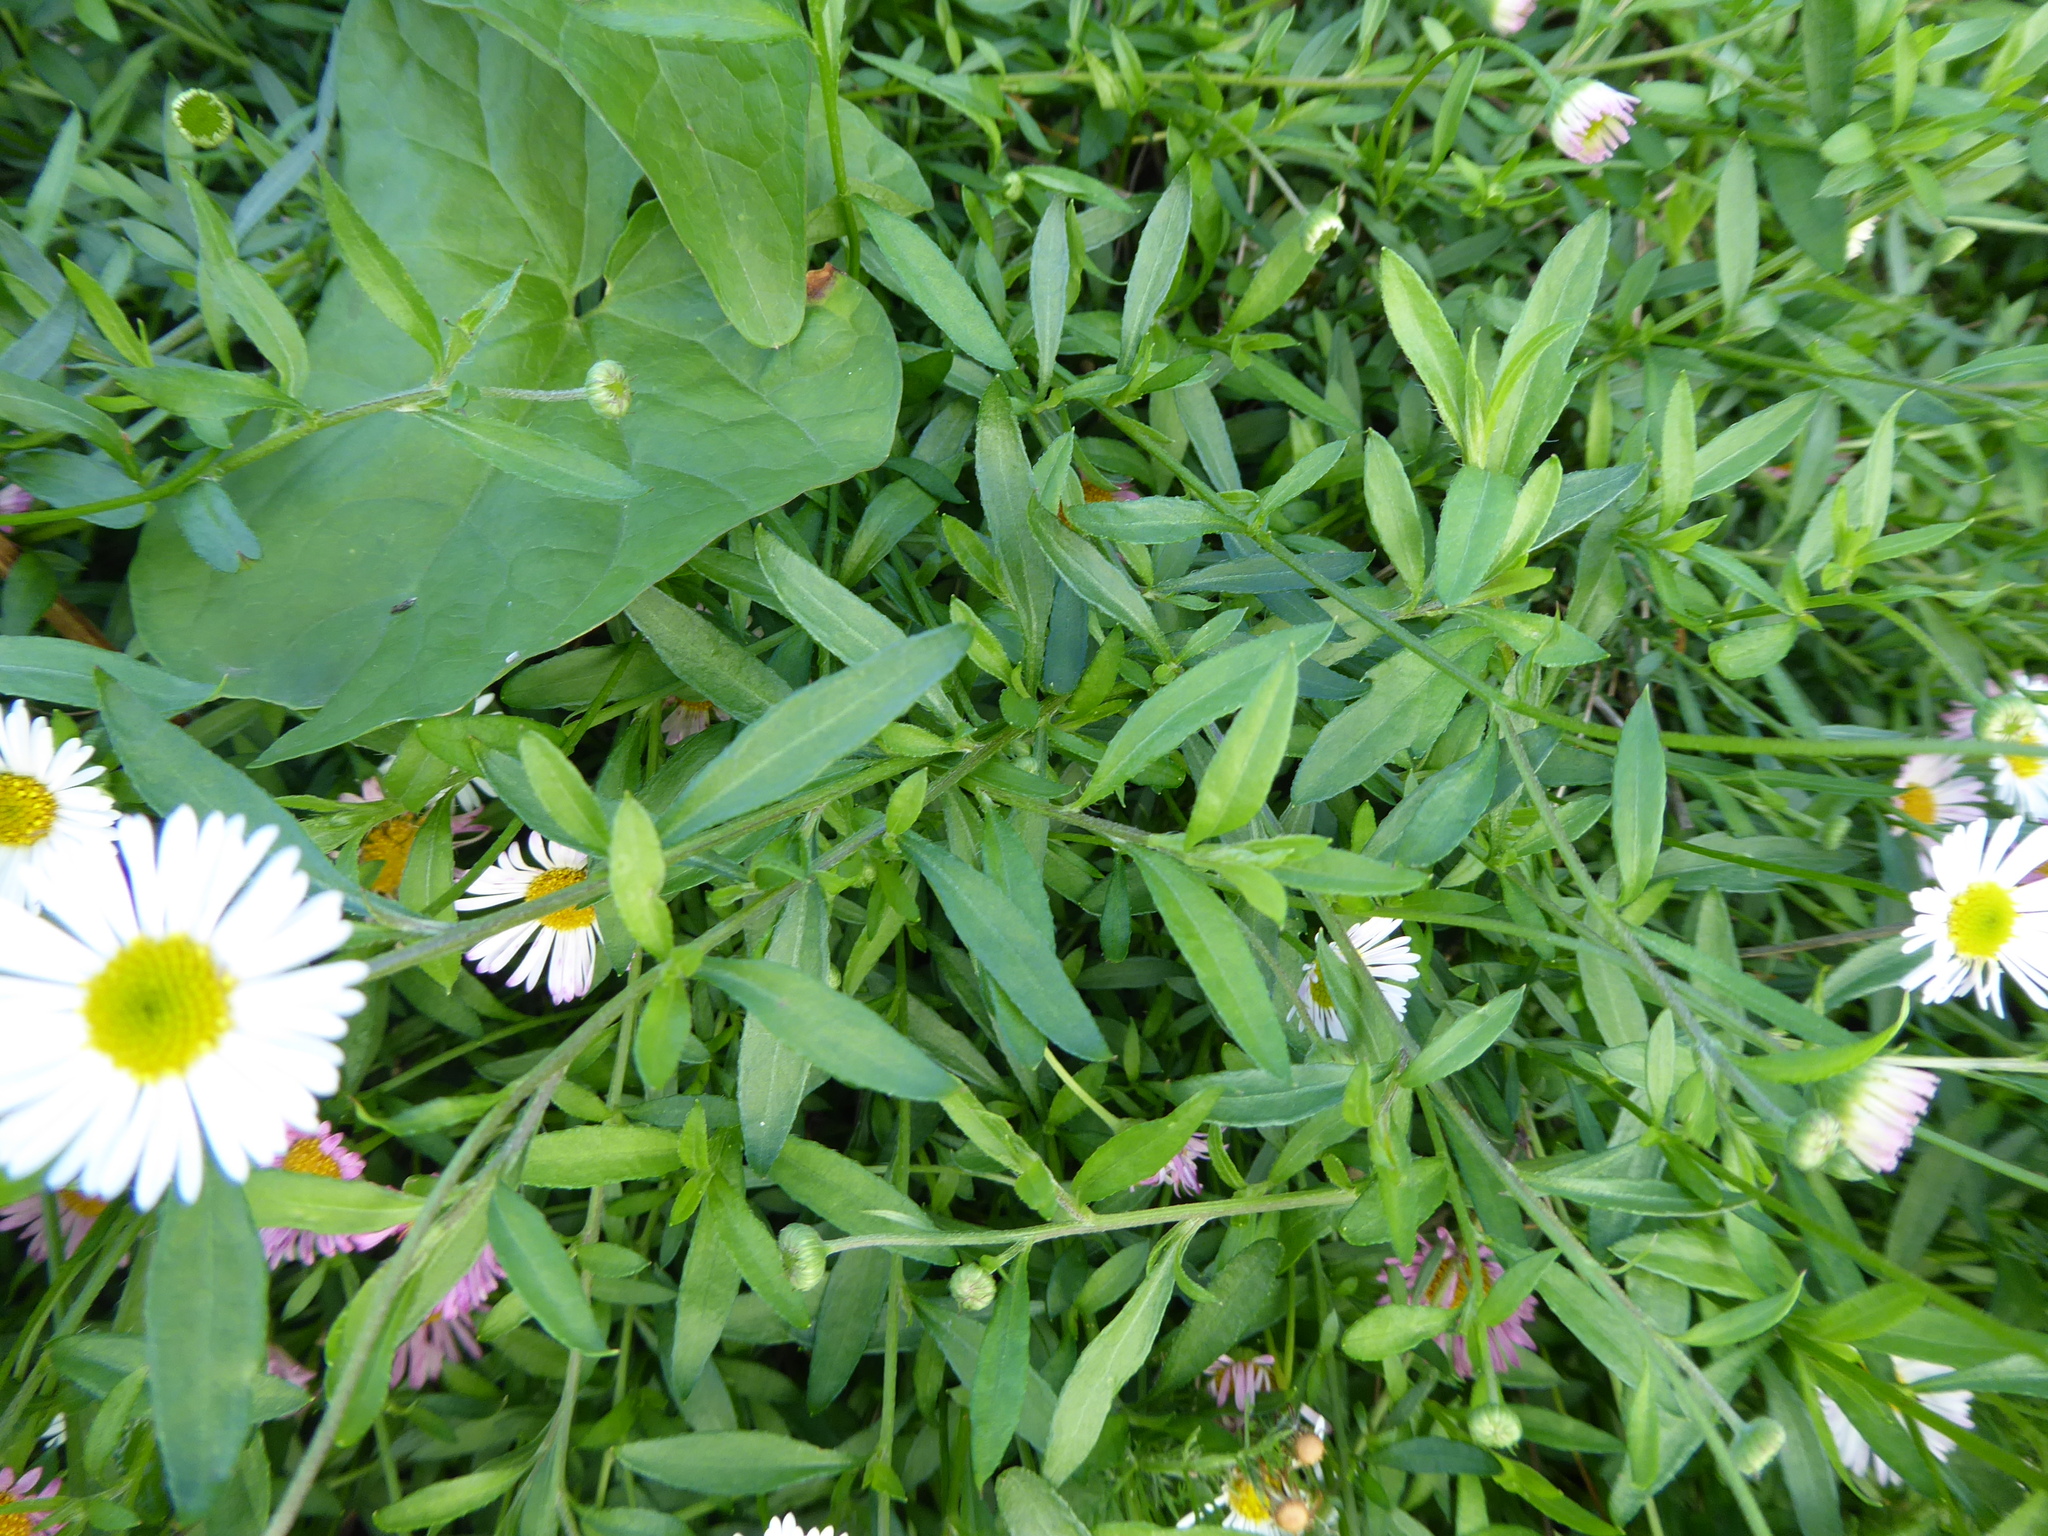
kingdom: Plantae
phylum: Tracheophyta
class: Magnoliopsida
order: Asterales
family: Asteraceae
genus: Erigeron
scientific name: Erigeron karvinskianus
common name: Mexican fleabane
